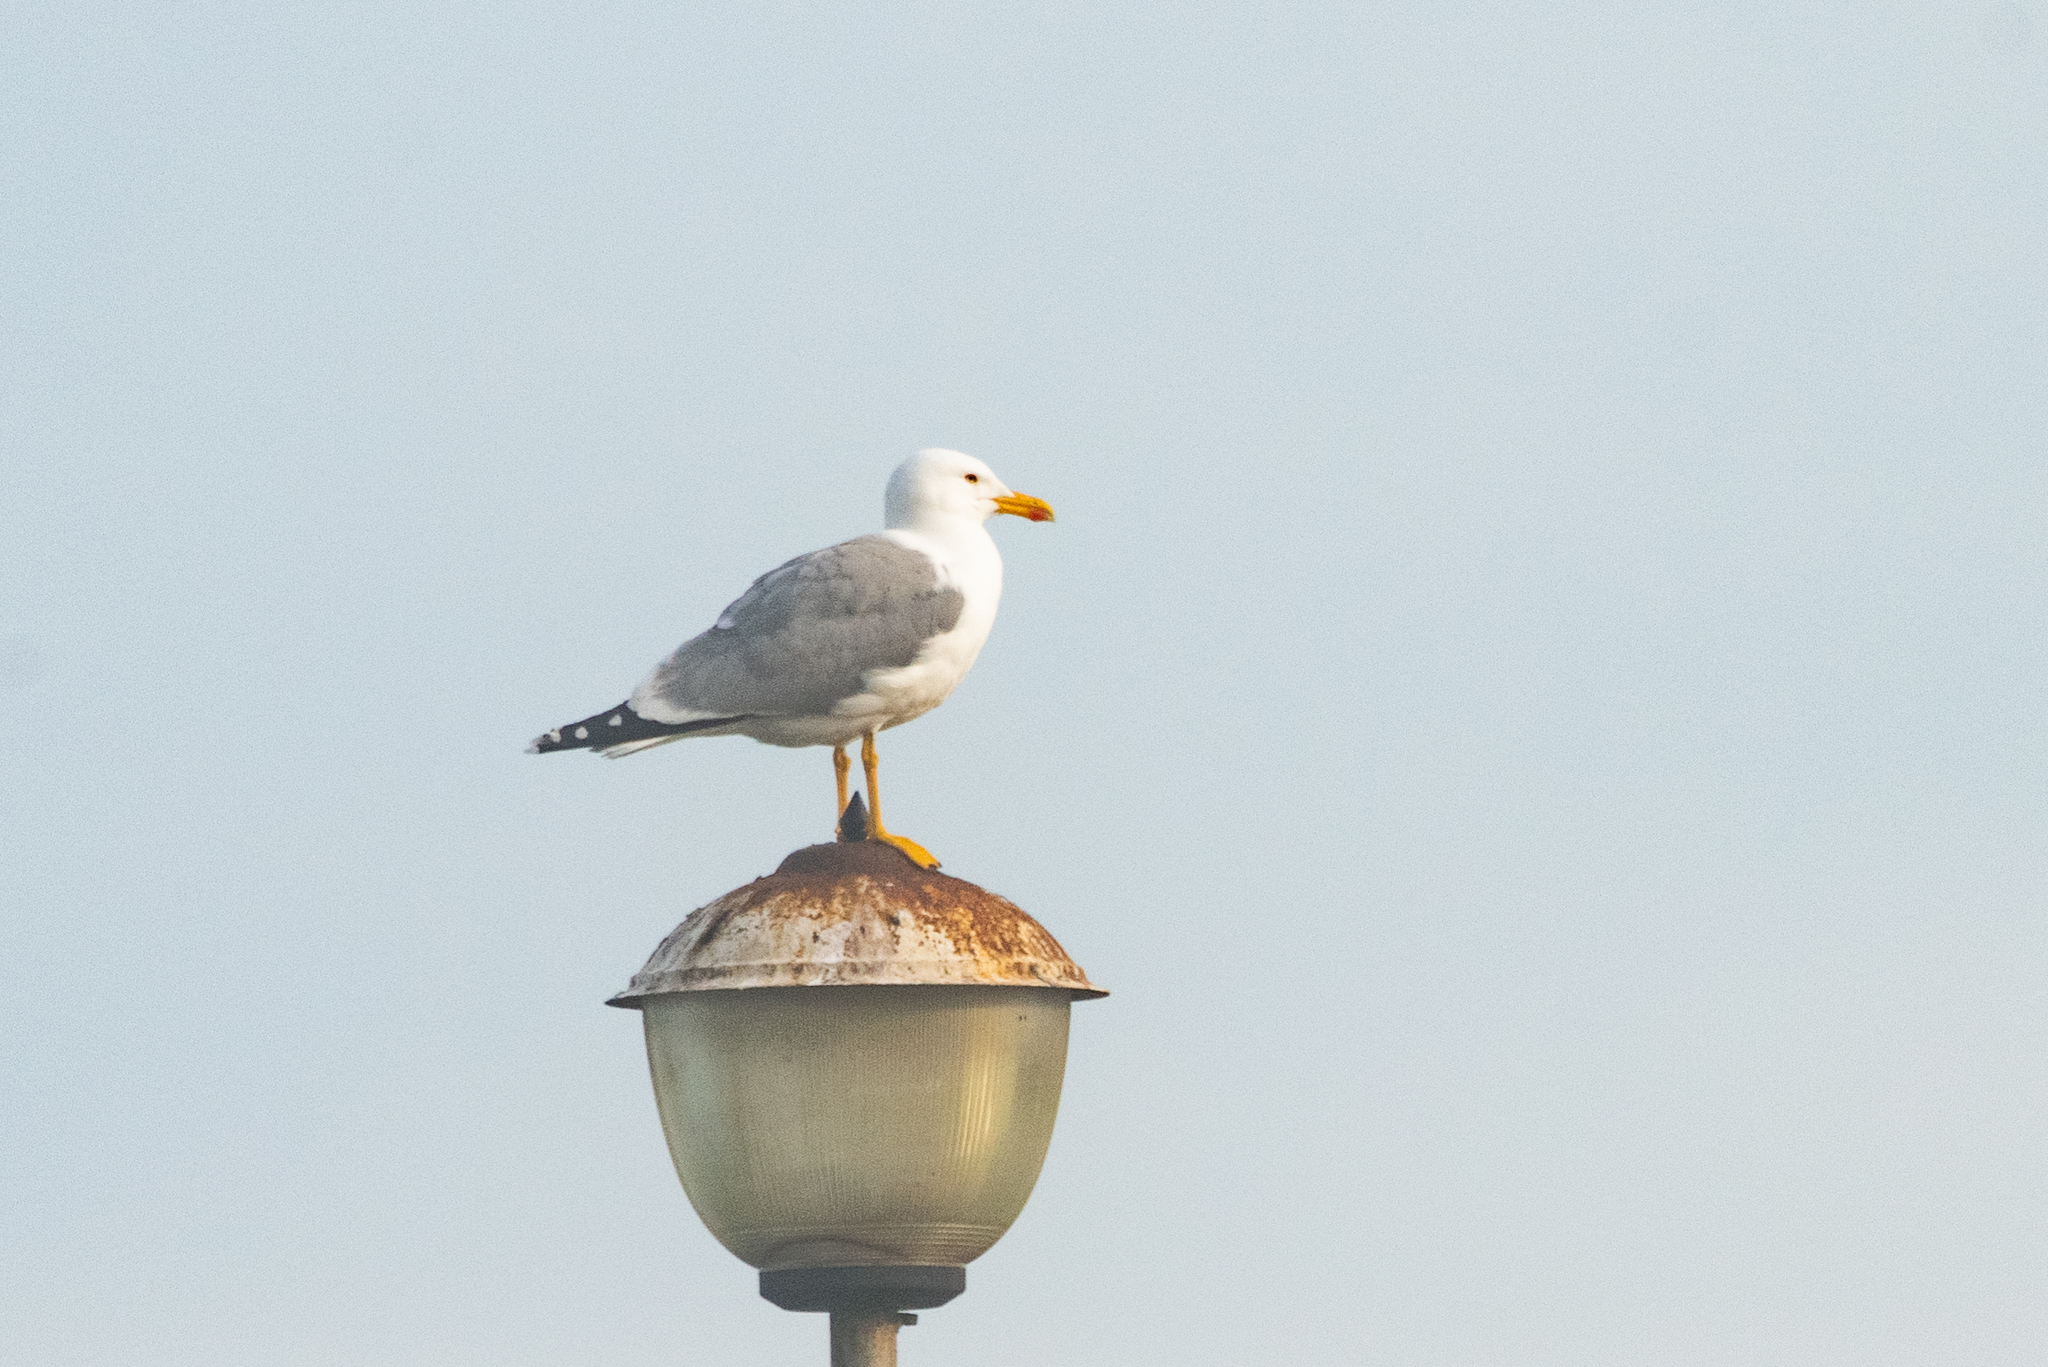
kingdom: Animalia
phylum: Chordata
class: Aves
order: Charadriiformes
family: Laridae
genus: Larus
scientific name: Larus michahellis
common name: Yellow-legged gull
